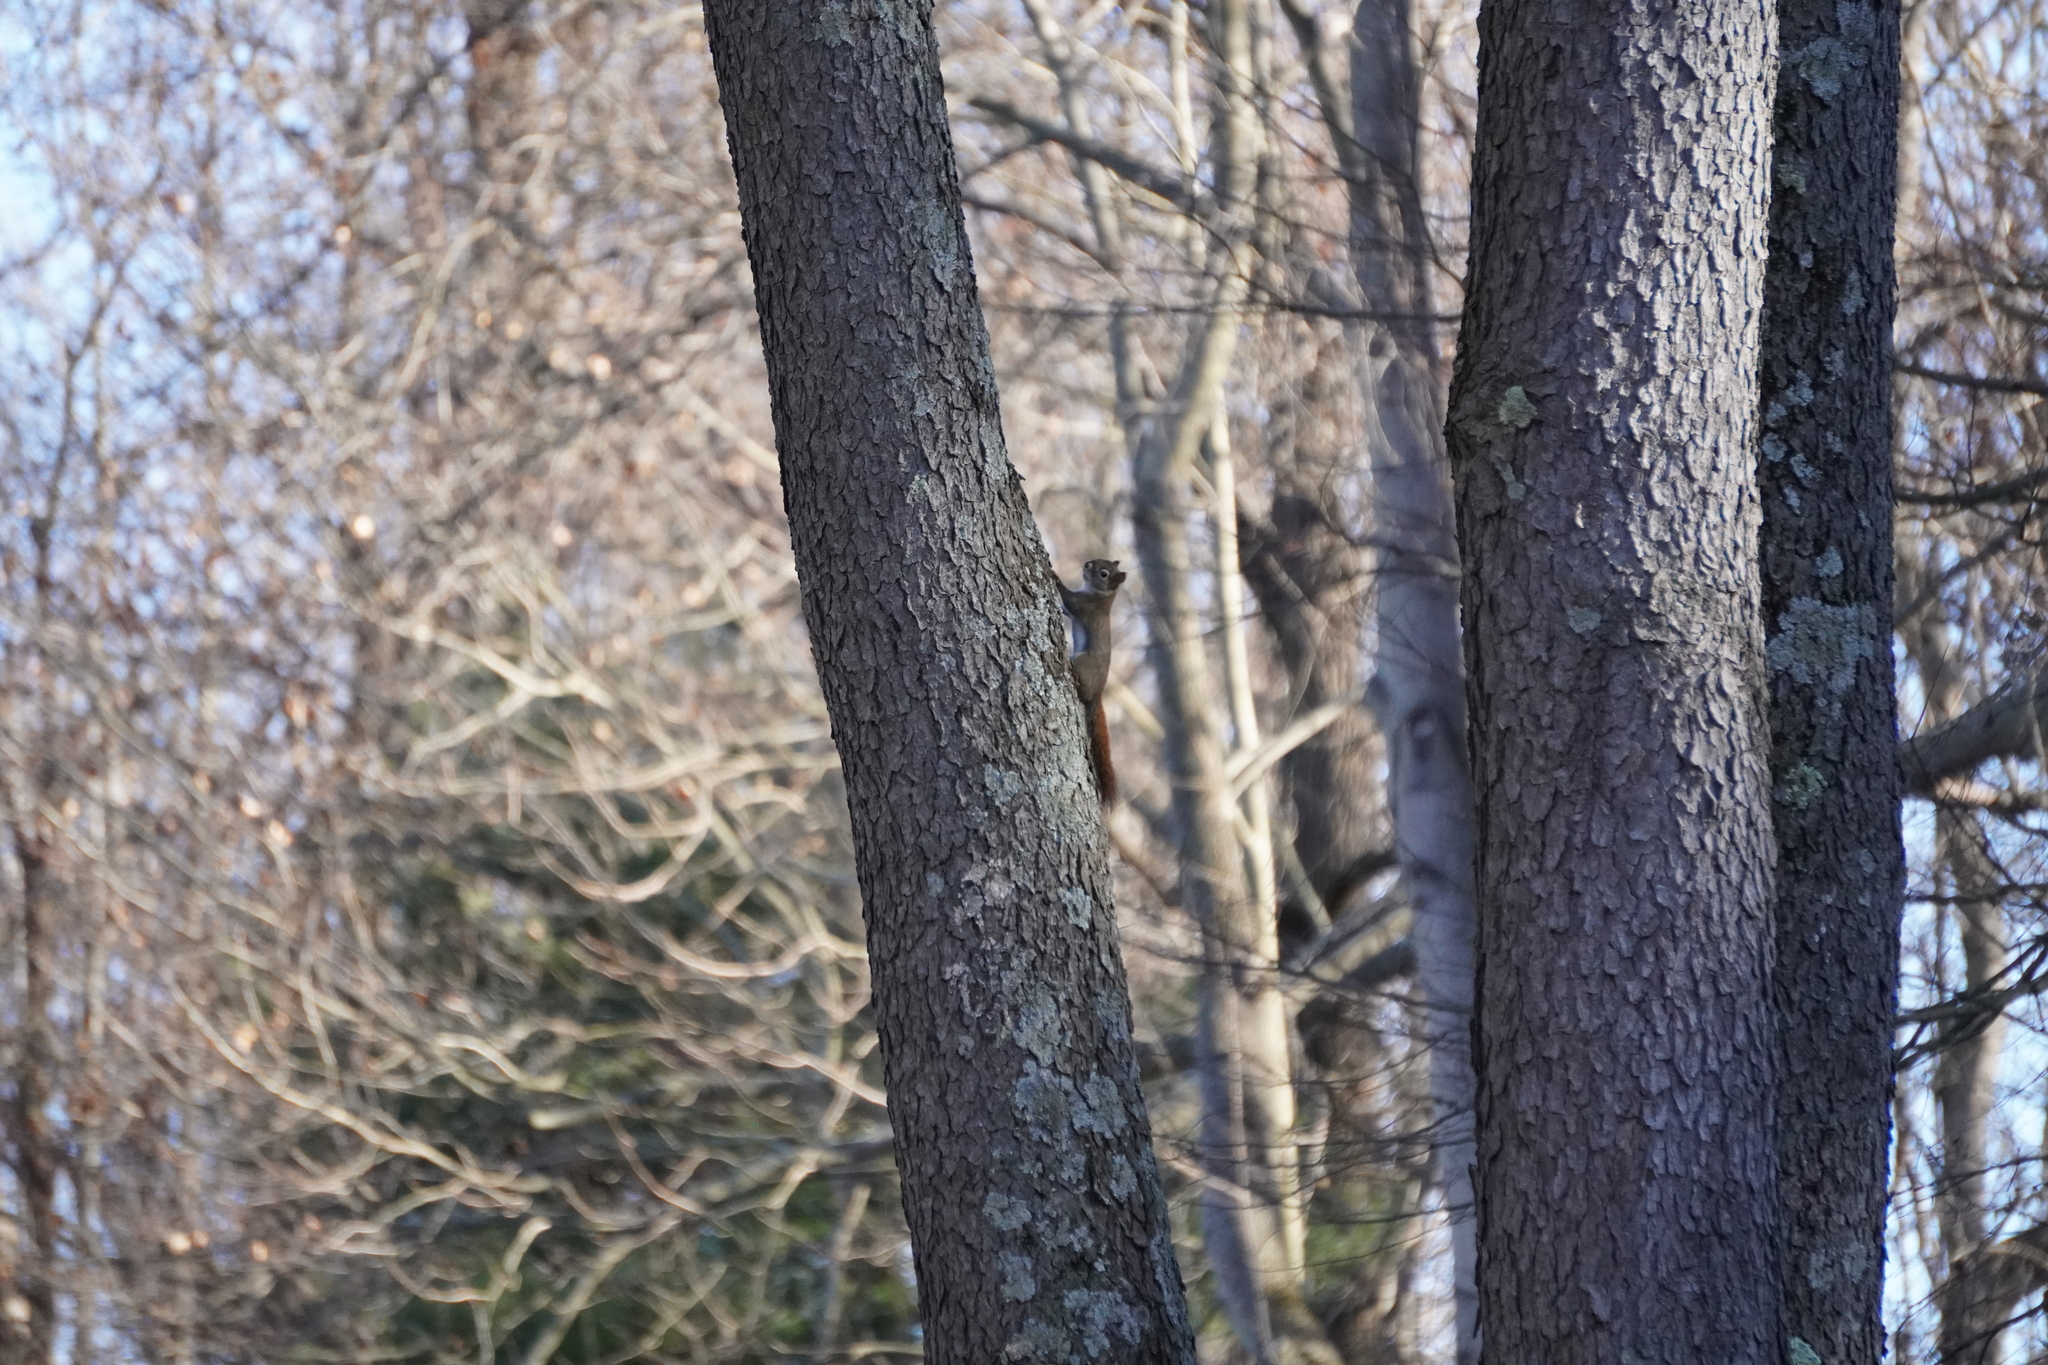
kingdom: Animalia
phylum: Chordata
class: Mammalia
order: Rodentia
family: Sciuridae
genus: Tamiasciurus
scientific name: Tamiasciurus hudsonicus
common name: Red squirrel
